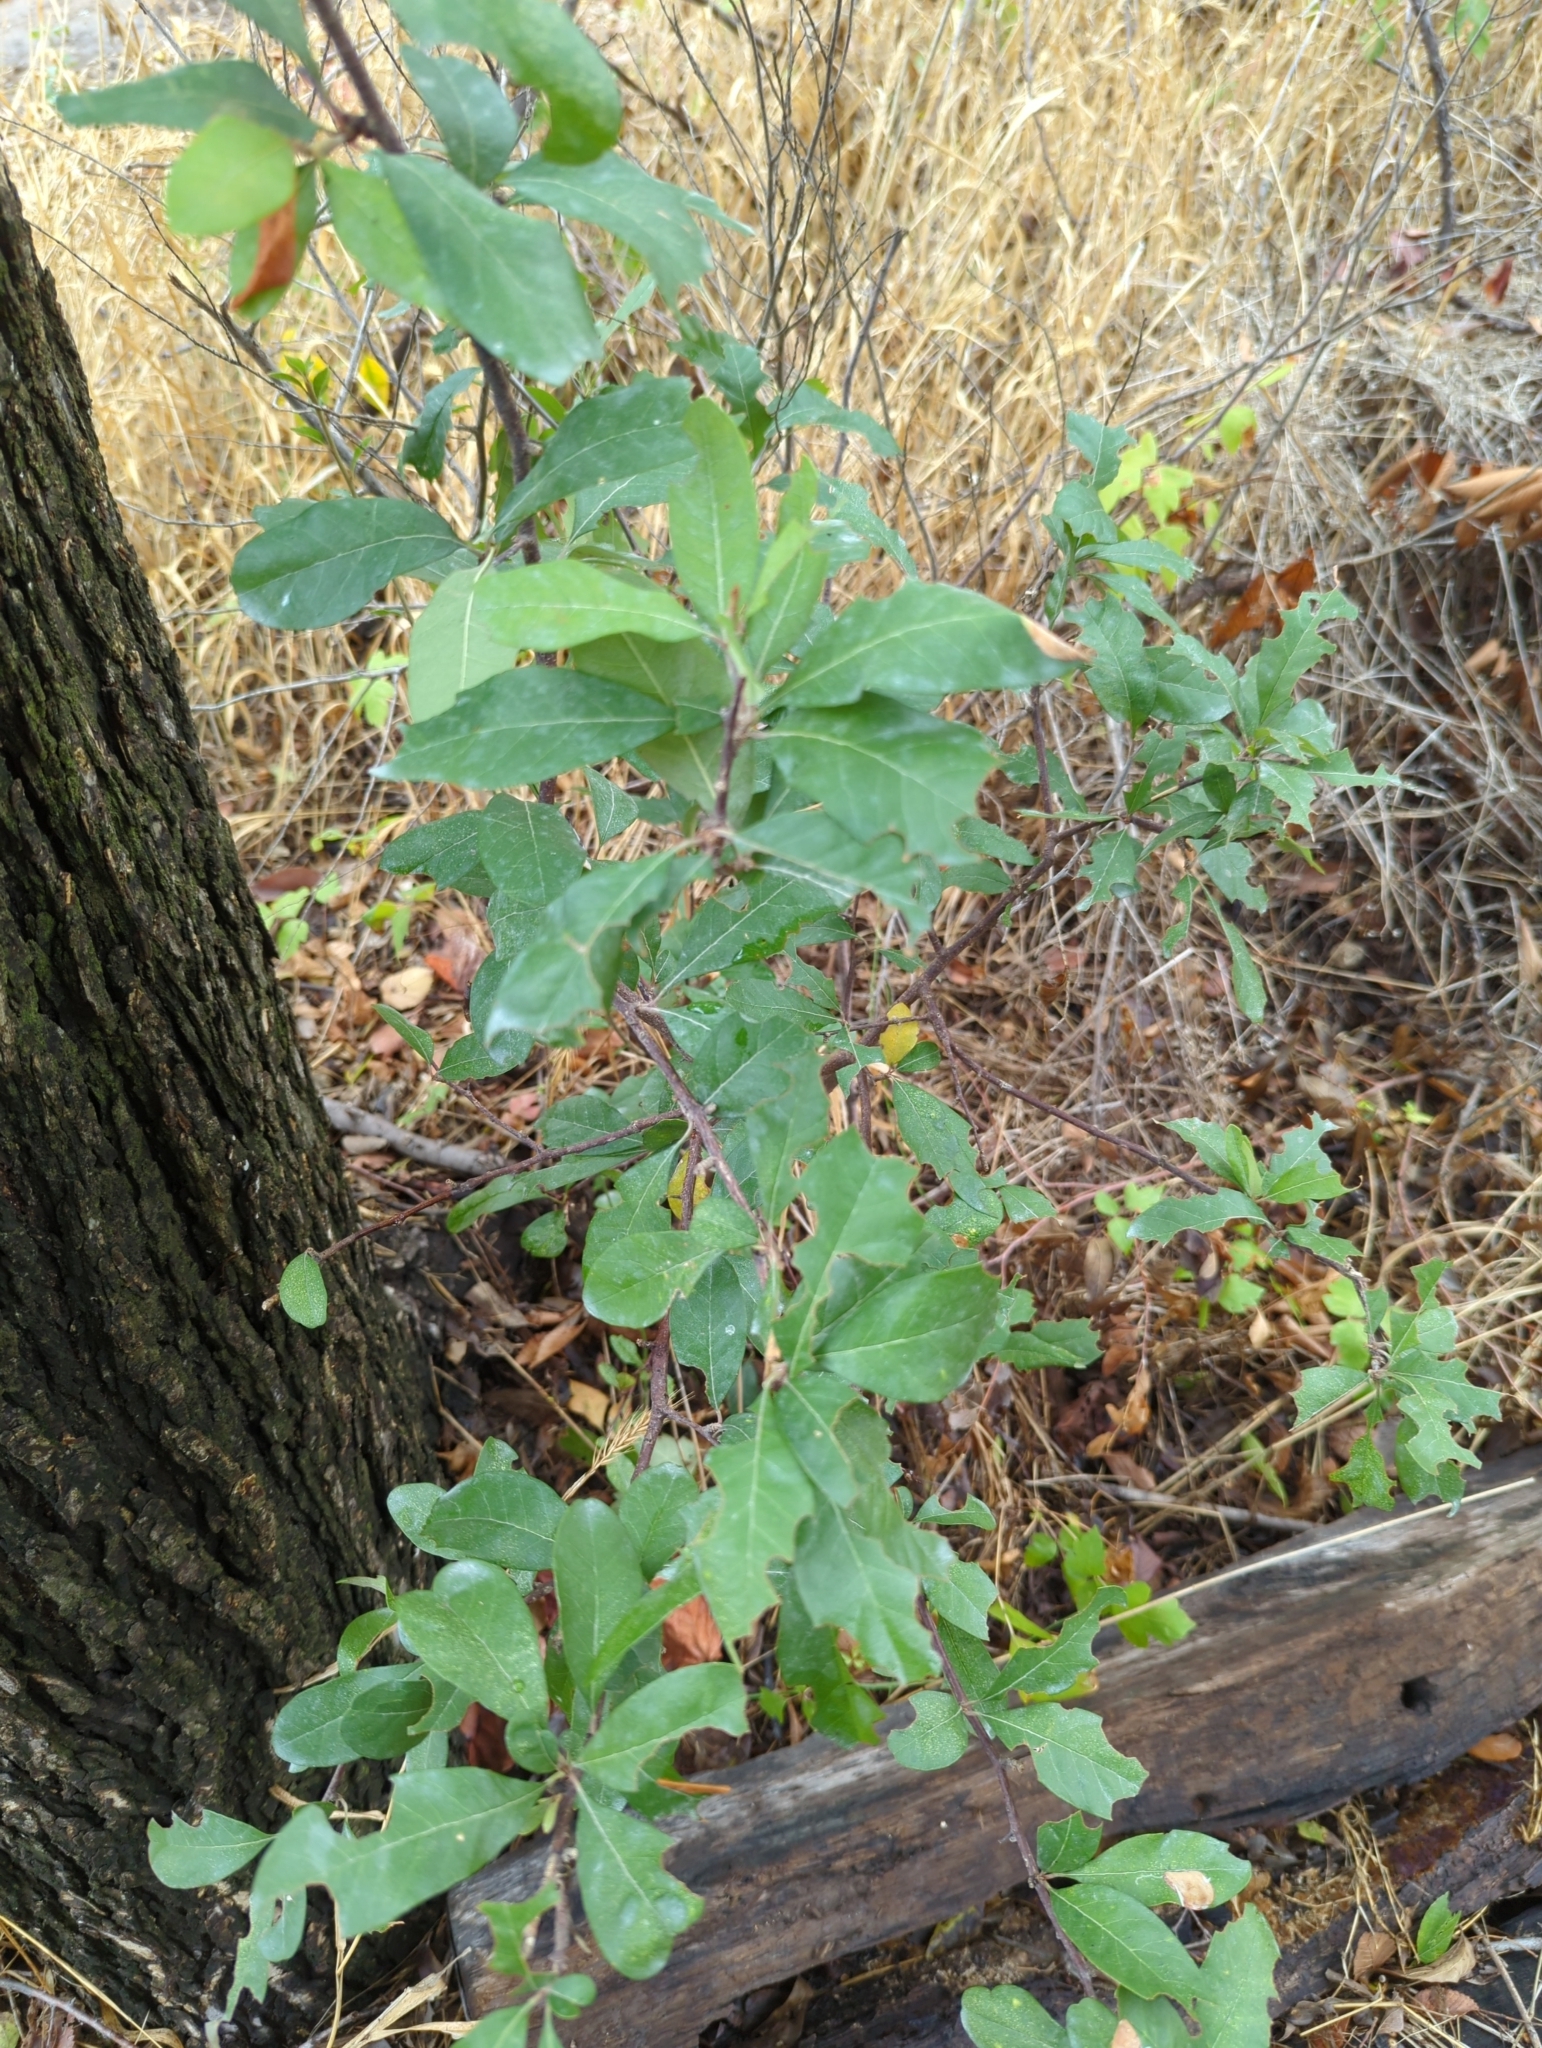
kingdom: Plantae
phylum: Tracheophyta
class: Magnoliopsida
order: Ericales
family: Sapotaceae
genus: Sideroxylon
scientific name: Sideroxylon lanuginosum
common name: Chittamwood
